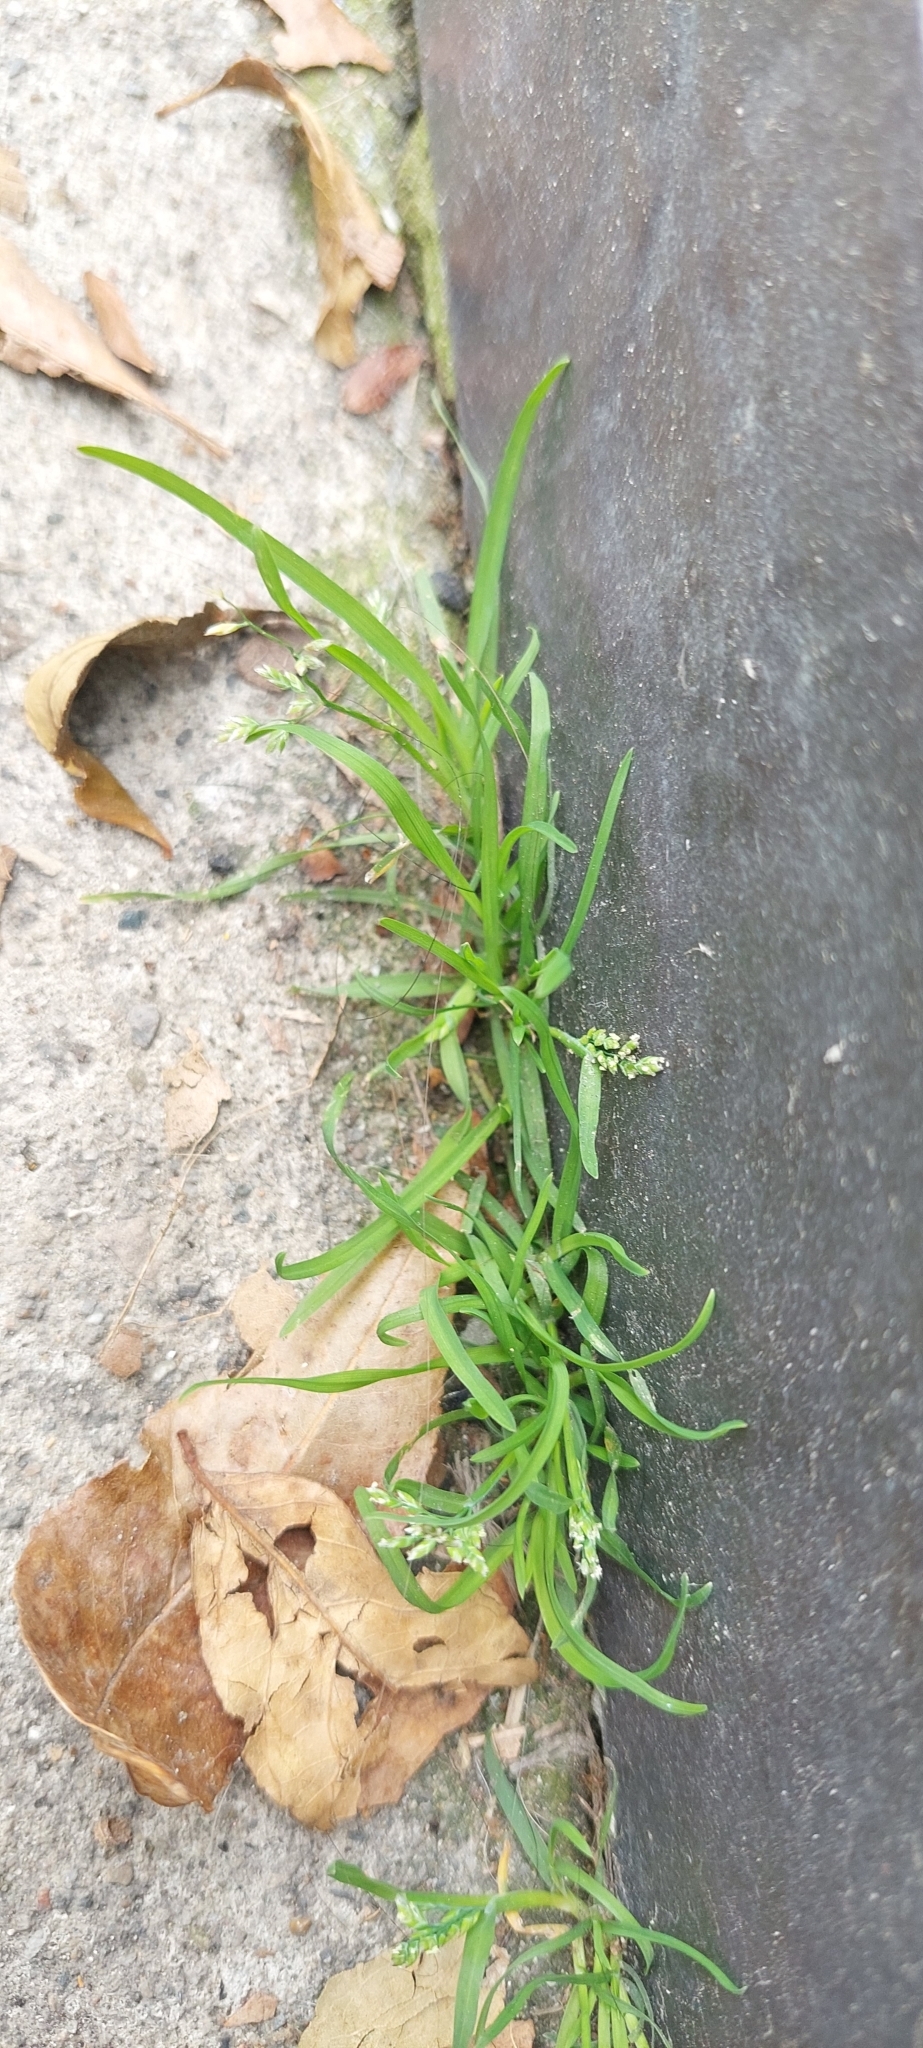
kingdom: Plantae
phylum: Tracheophyta
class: Liliopsida
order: Poales
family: Poaceae
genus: Poa
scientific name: Poa annua
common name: Annual bluegrass
